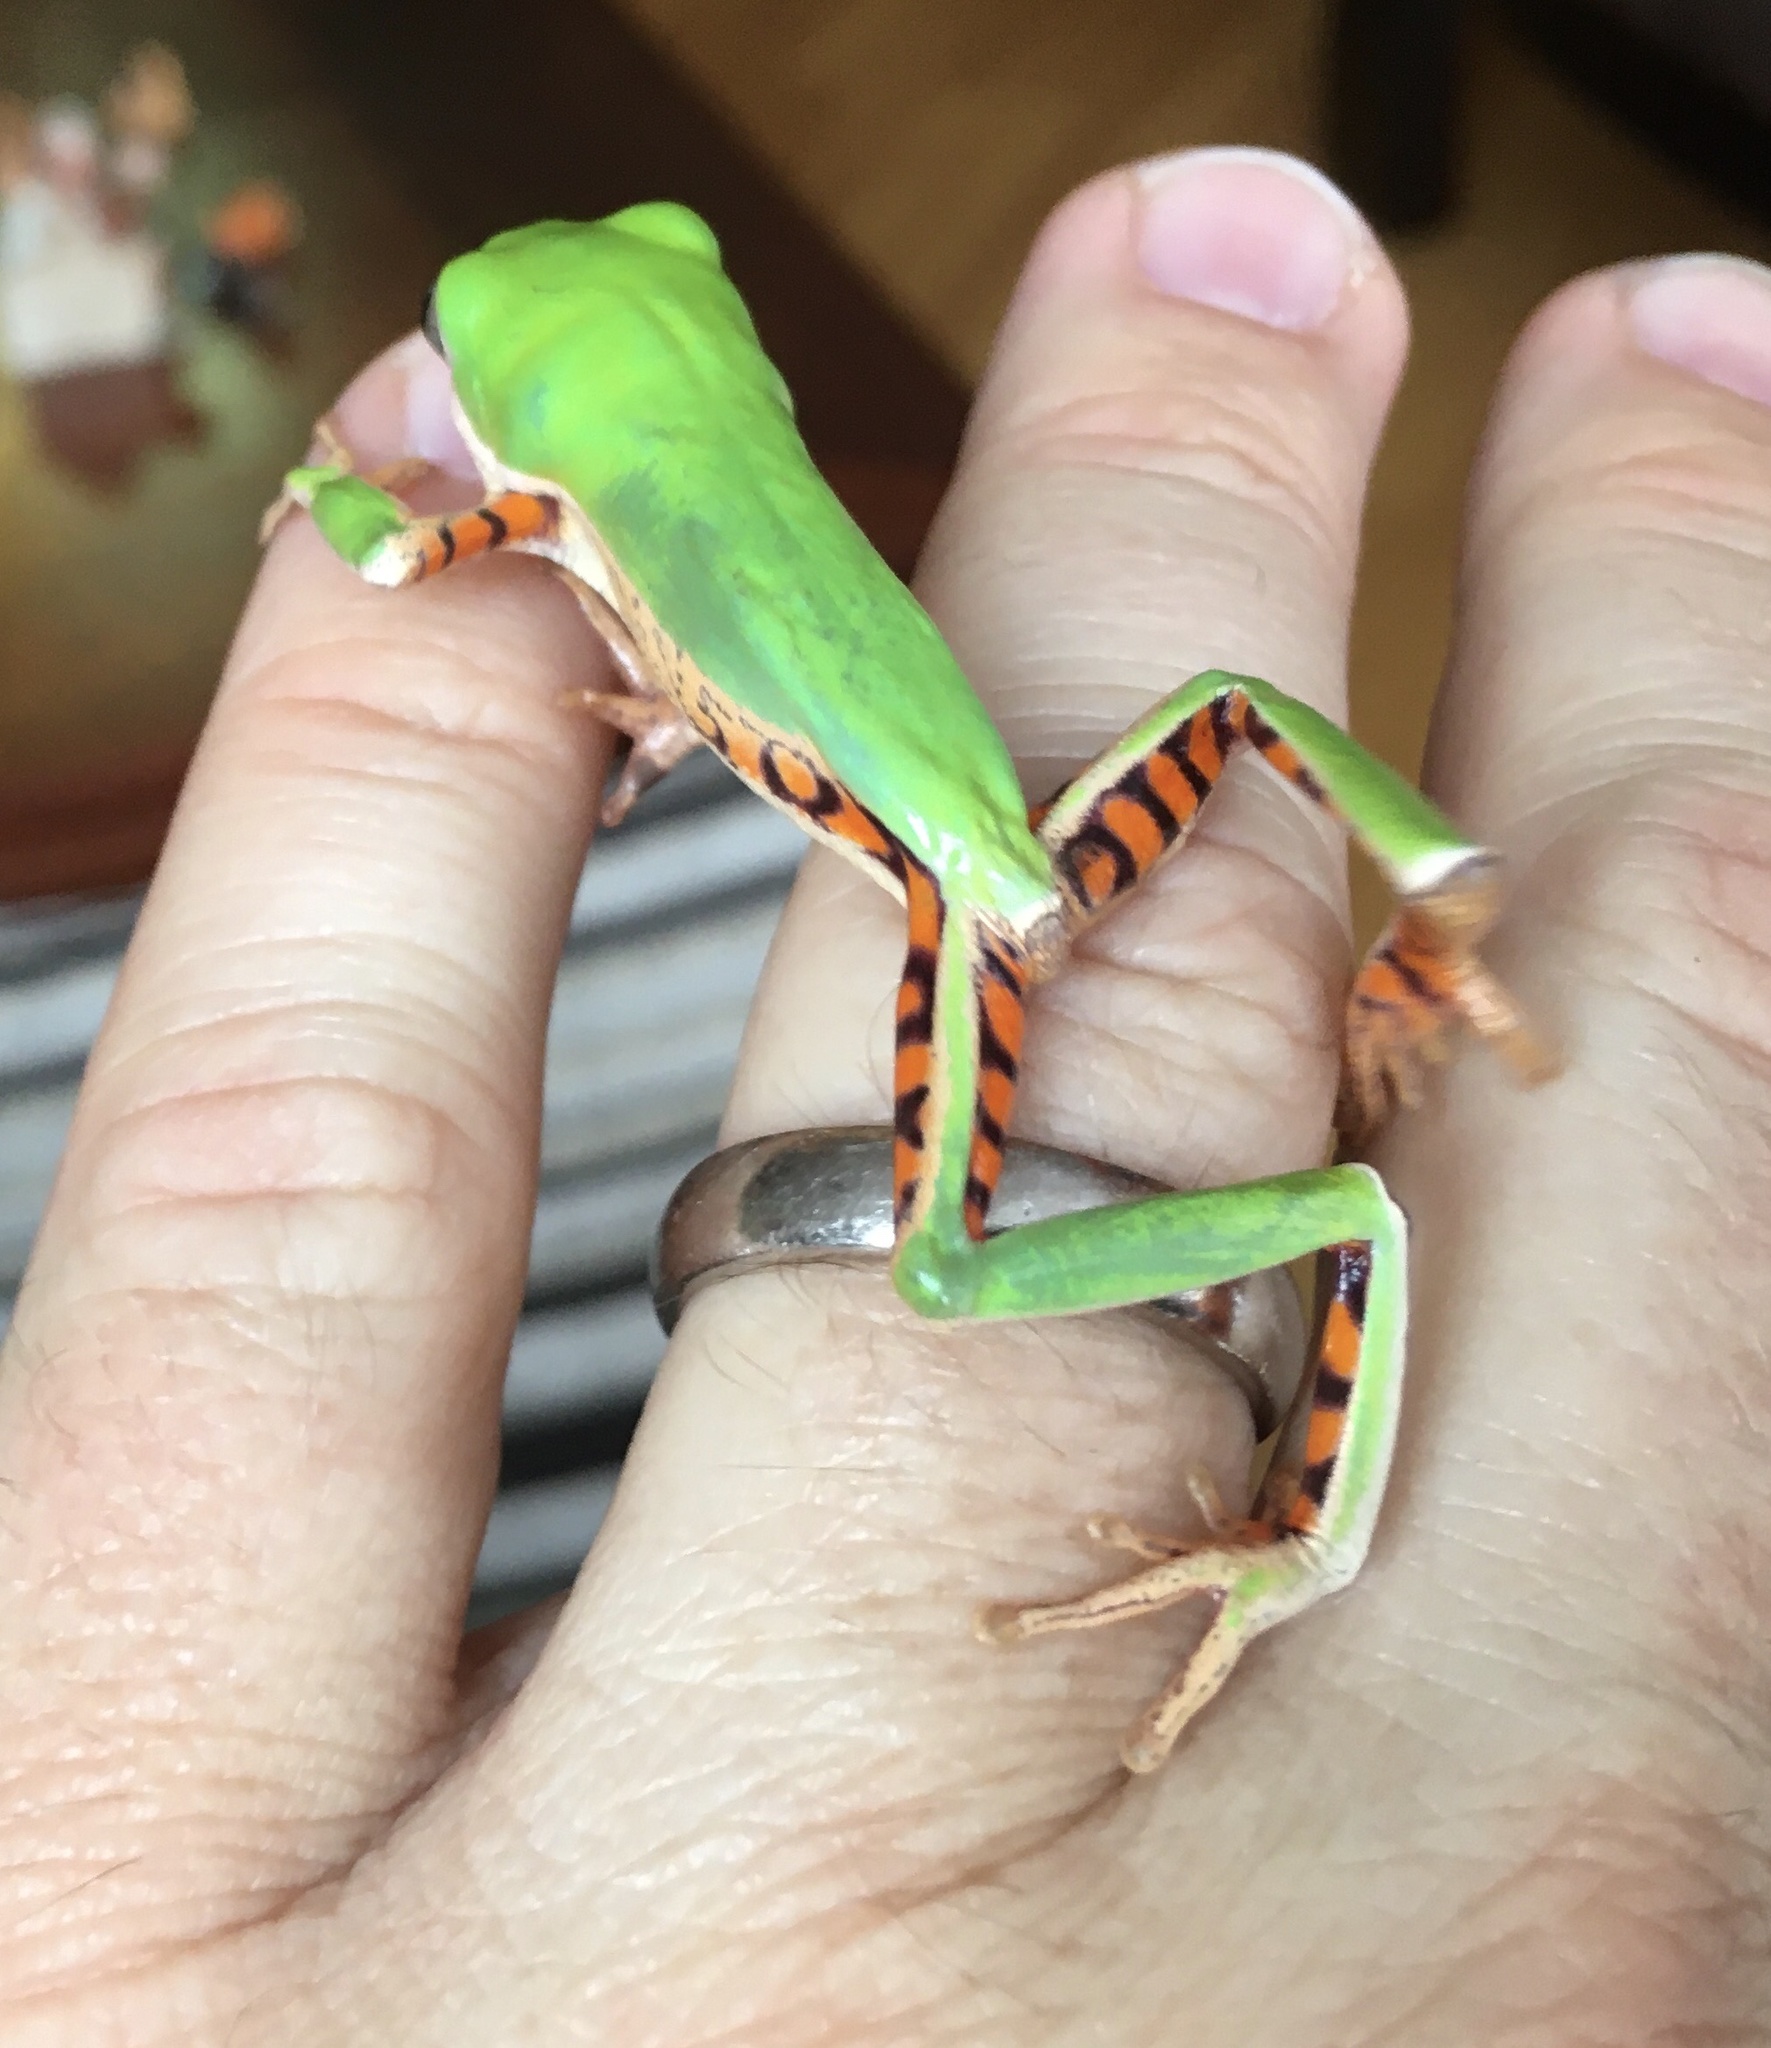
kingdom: Animalia
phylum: Chordata
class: Amphibia
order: Anura
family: Phyllomedusidae
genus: Pithecopus
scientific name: Pithecopus hypochondrialis
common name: Orange-legged leaf frog
